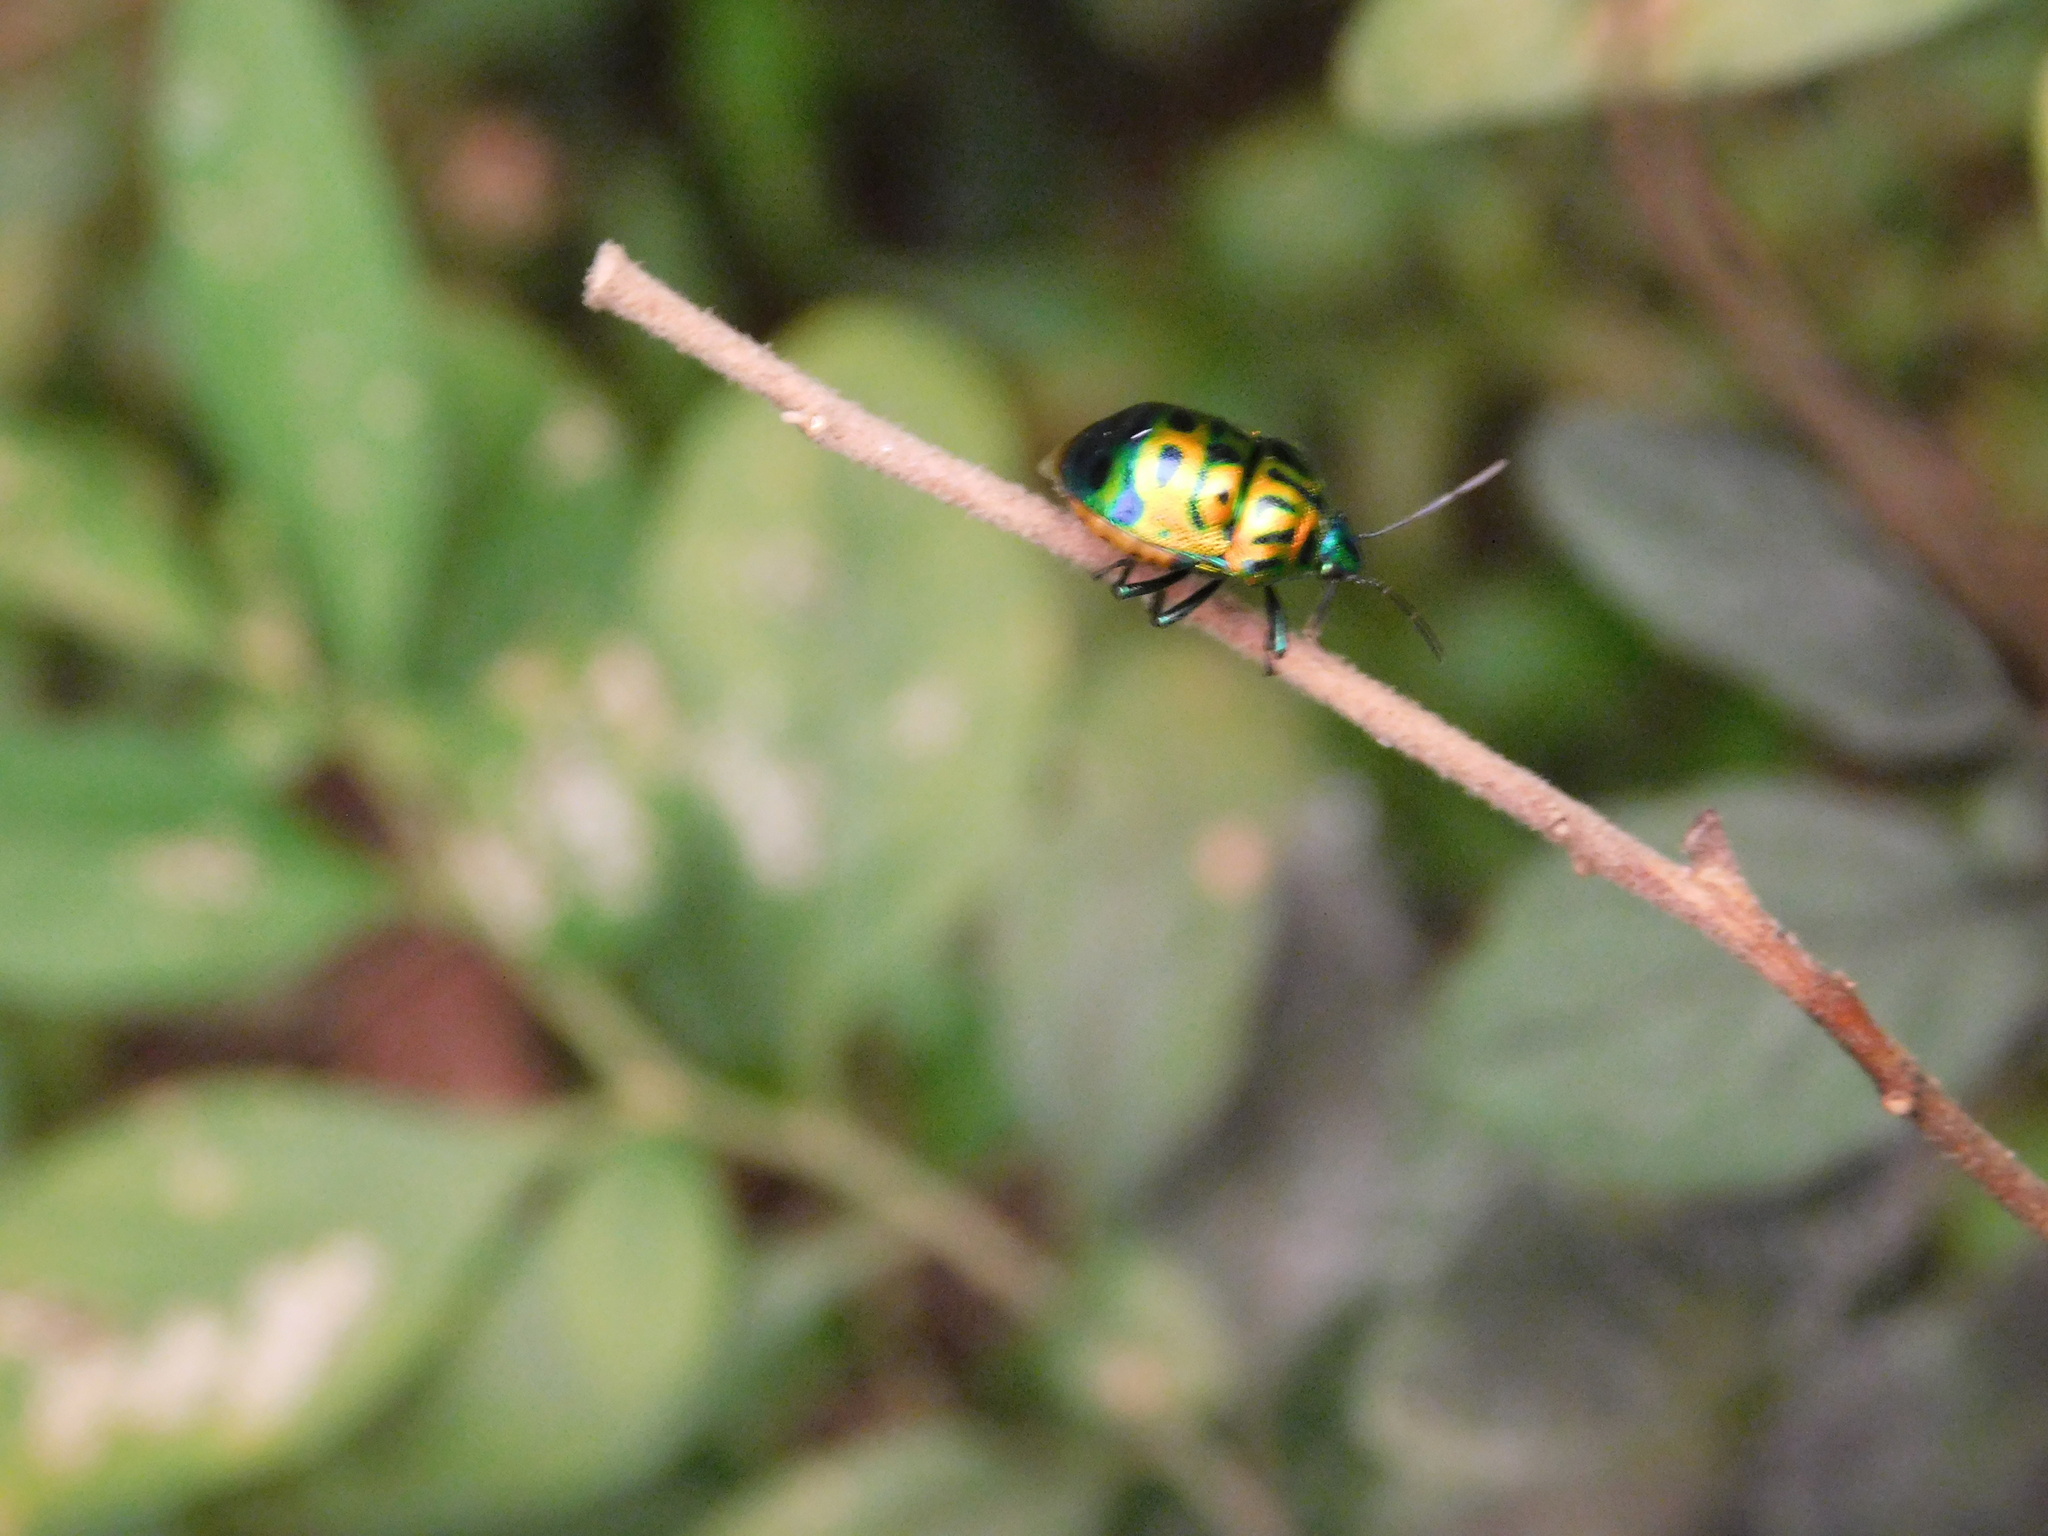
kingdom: Animalia
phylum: Arthropoda
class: Insecta
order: Hemiptera
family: Scutelleridae
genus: Lamprocoris
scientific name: Lamprocoris lateralis
